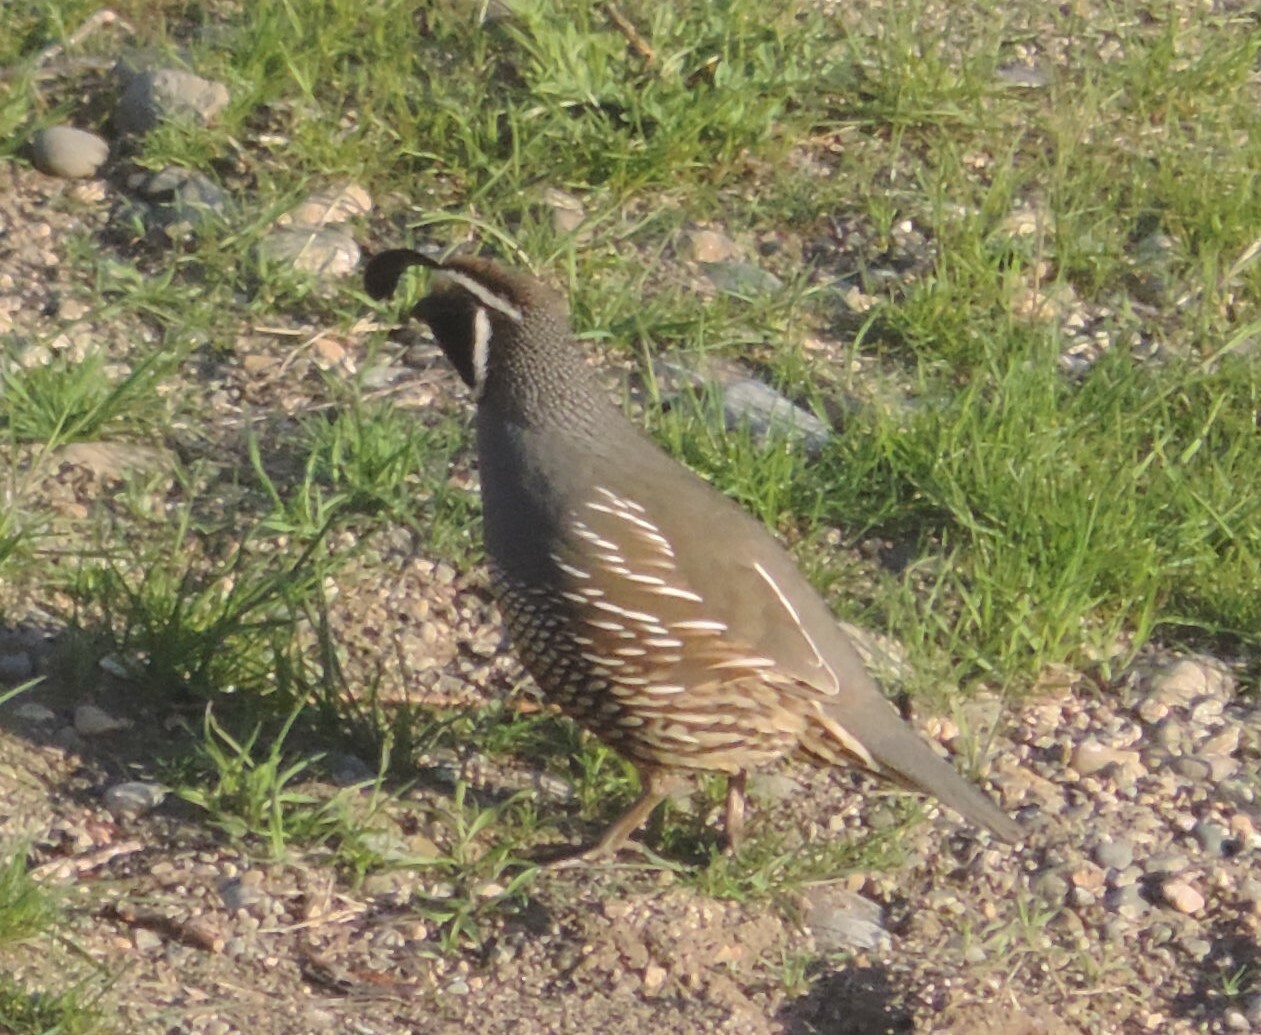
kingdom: Animalia
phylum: Chordata
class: Aves
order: Galliformes
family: Odontophoridae
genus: Callipepla
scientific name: Callipepla californica
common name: California quail
